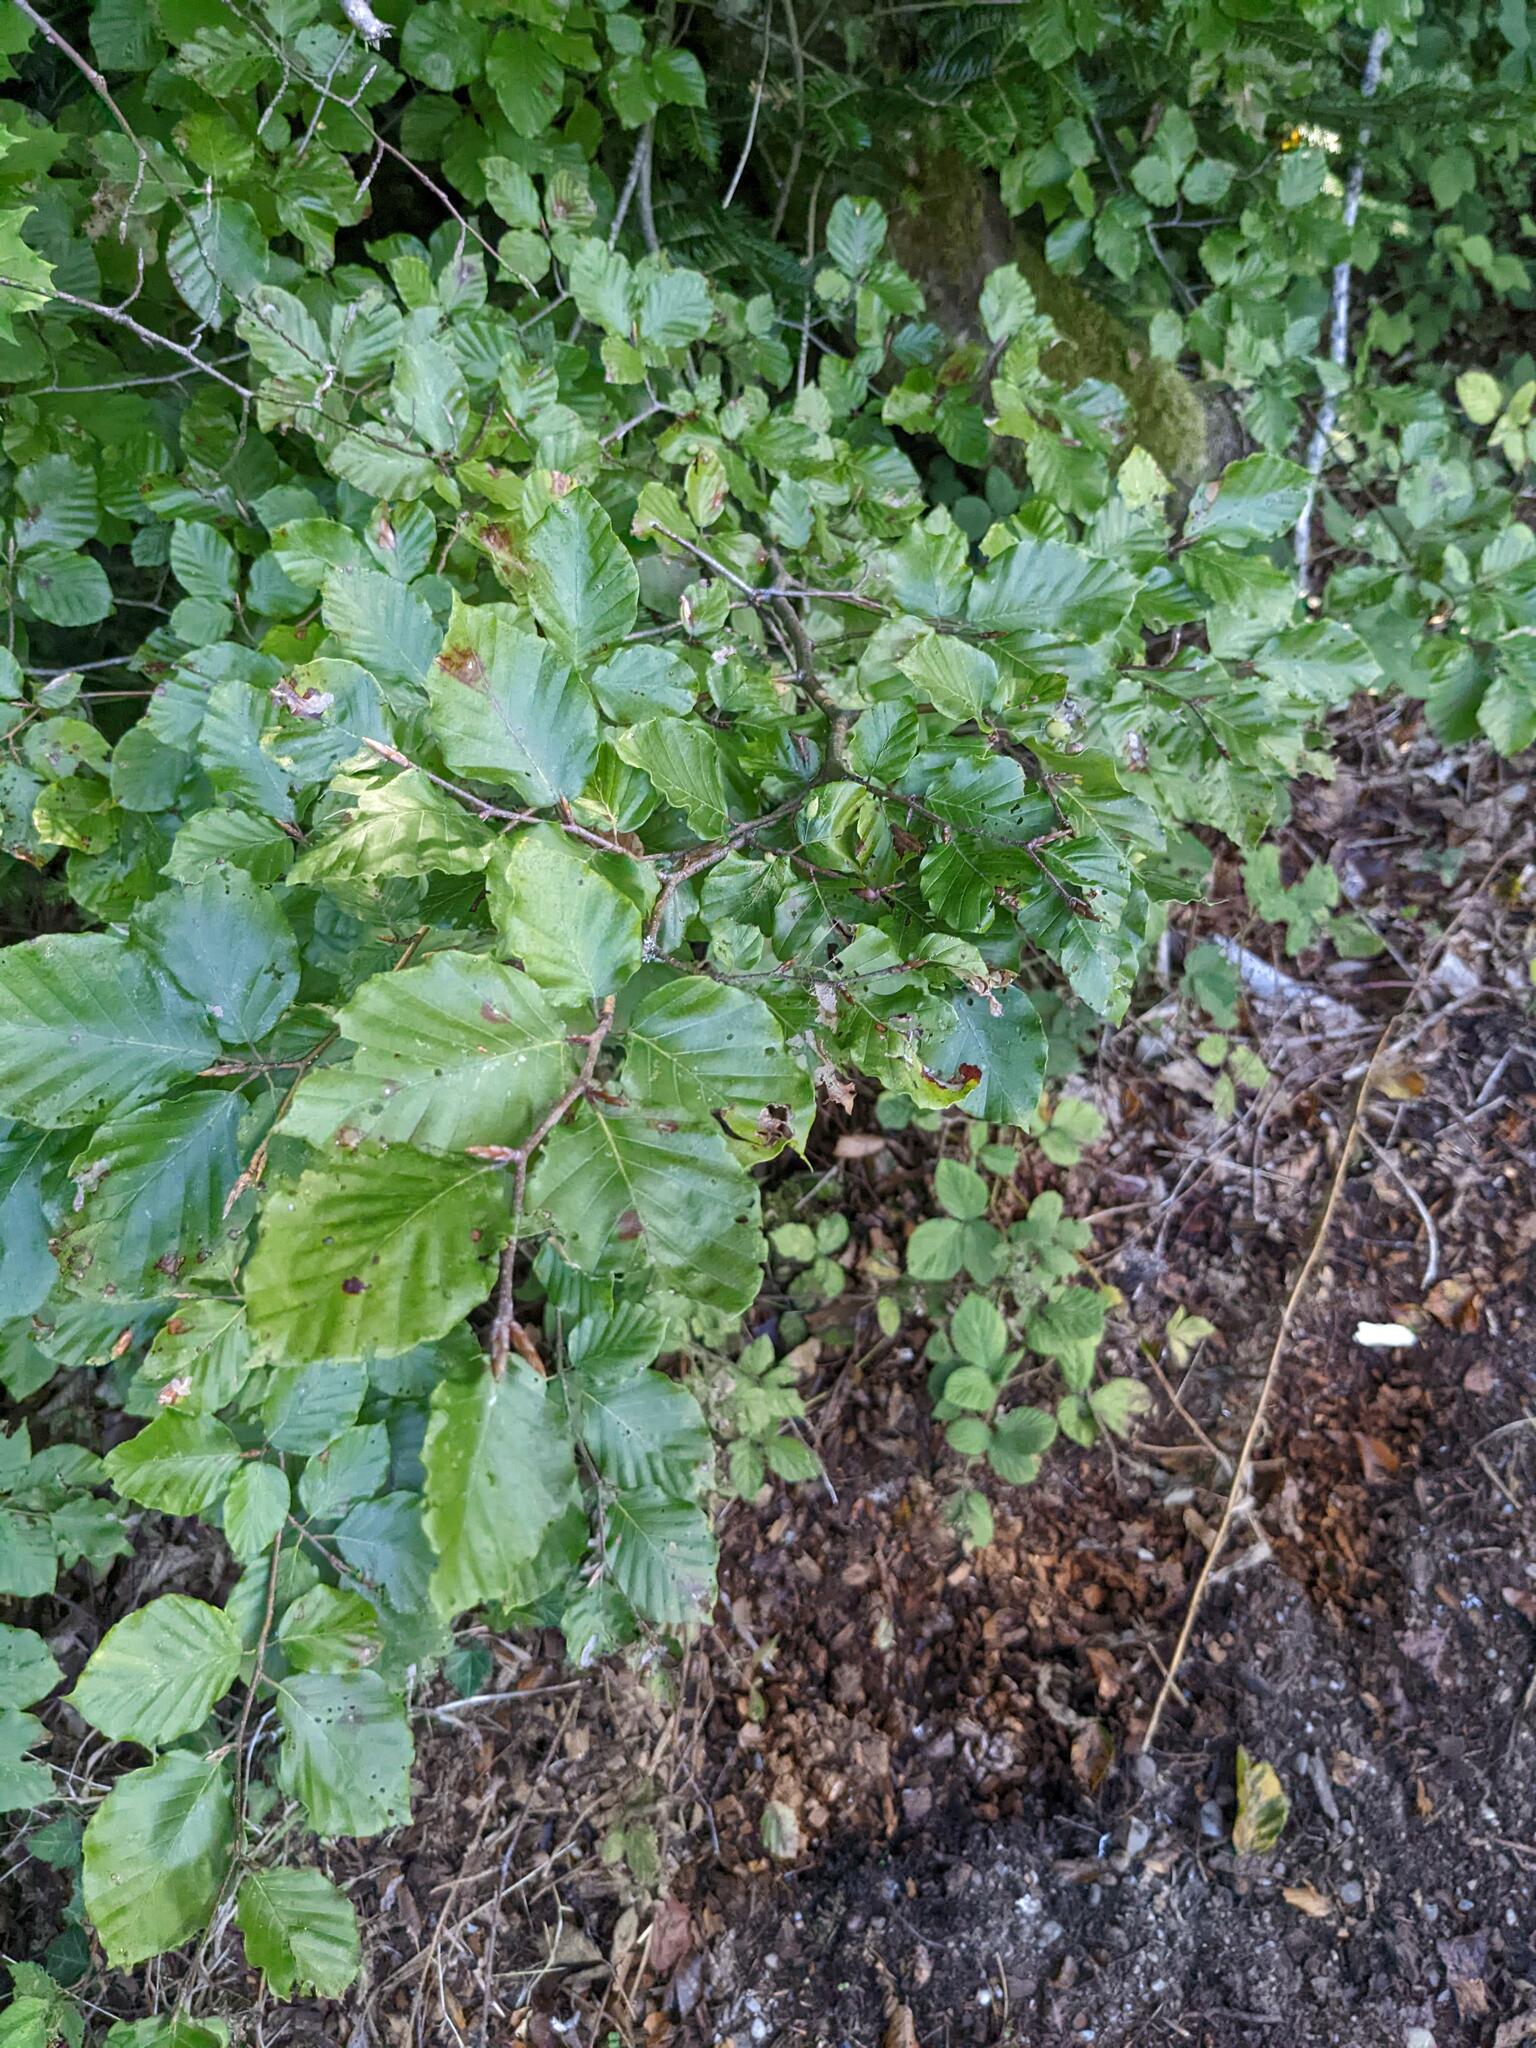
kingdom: Plantae
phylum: Tracheophyta
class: Magnoliopsida
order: Fagales
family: Fagaceae
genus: Fagus
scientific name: Fagus sylvatica
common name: Beech
